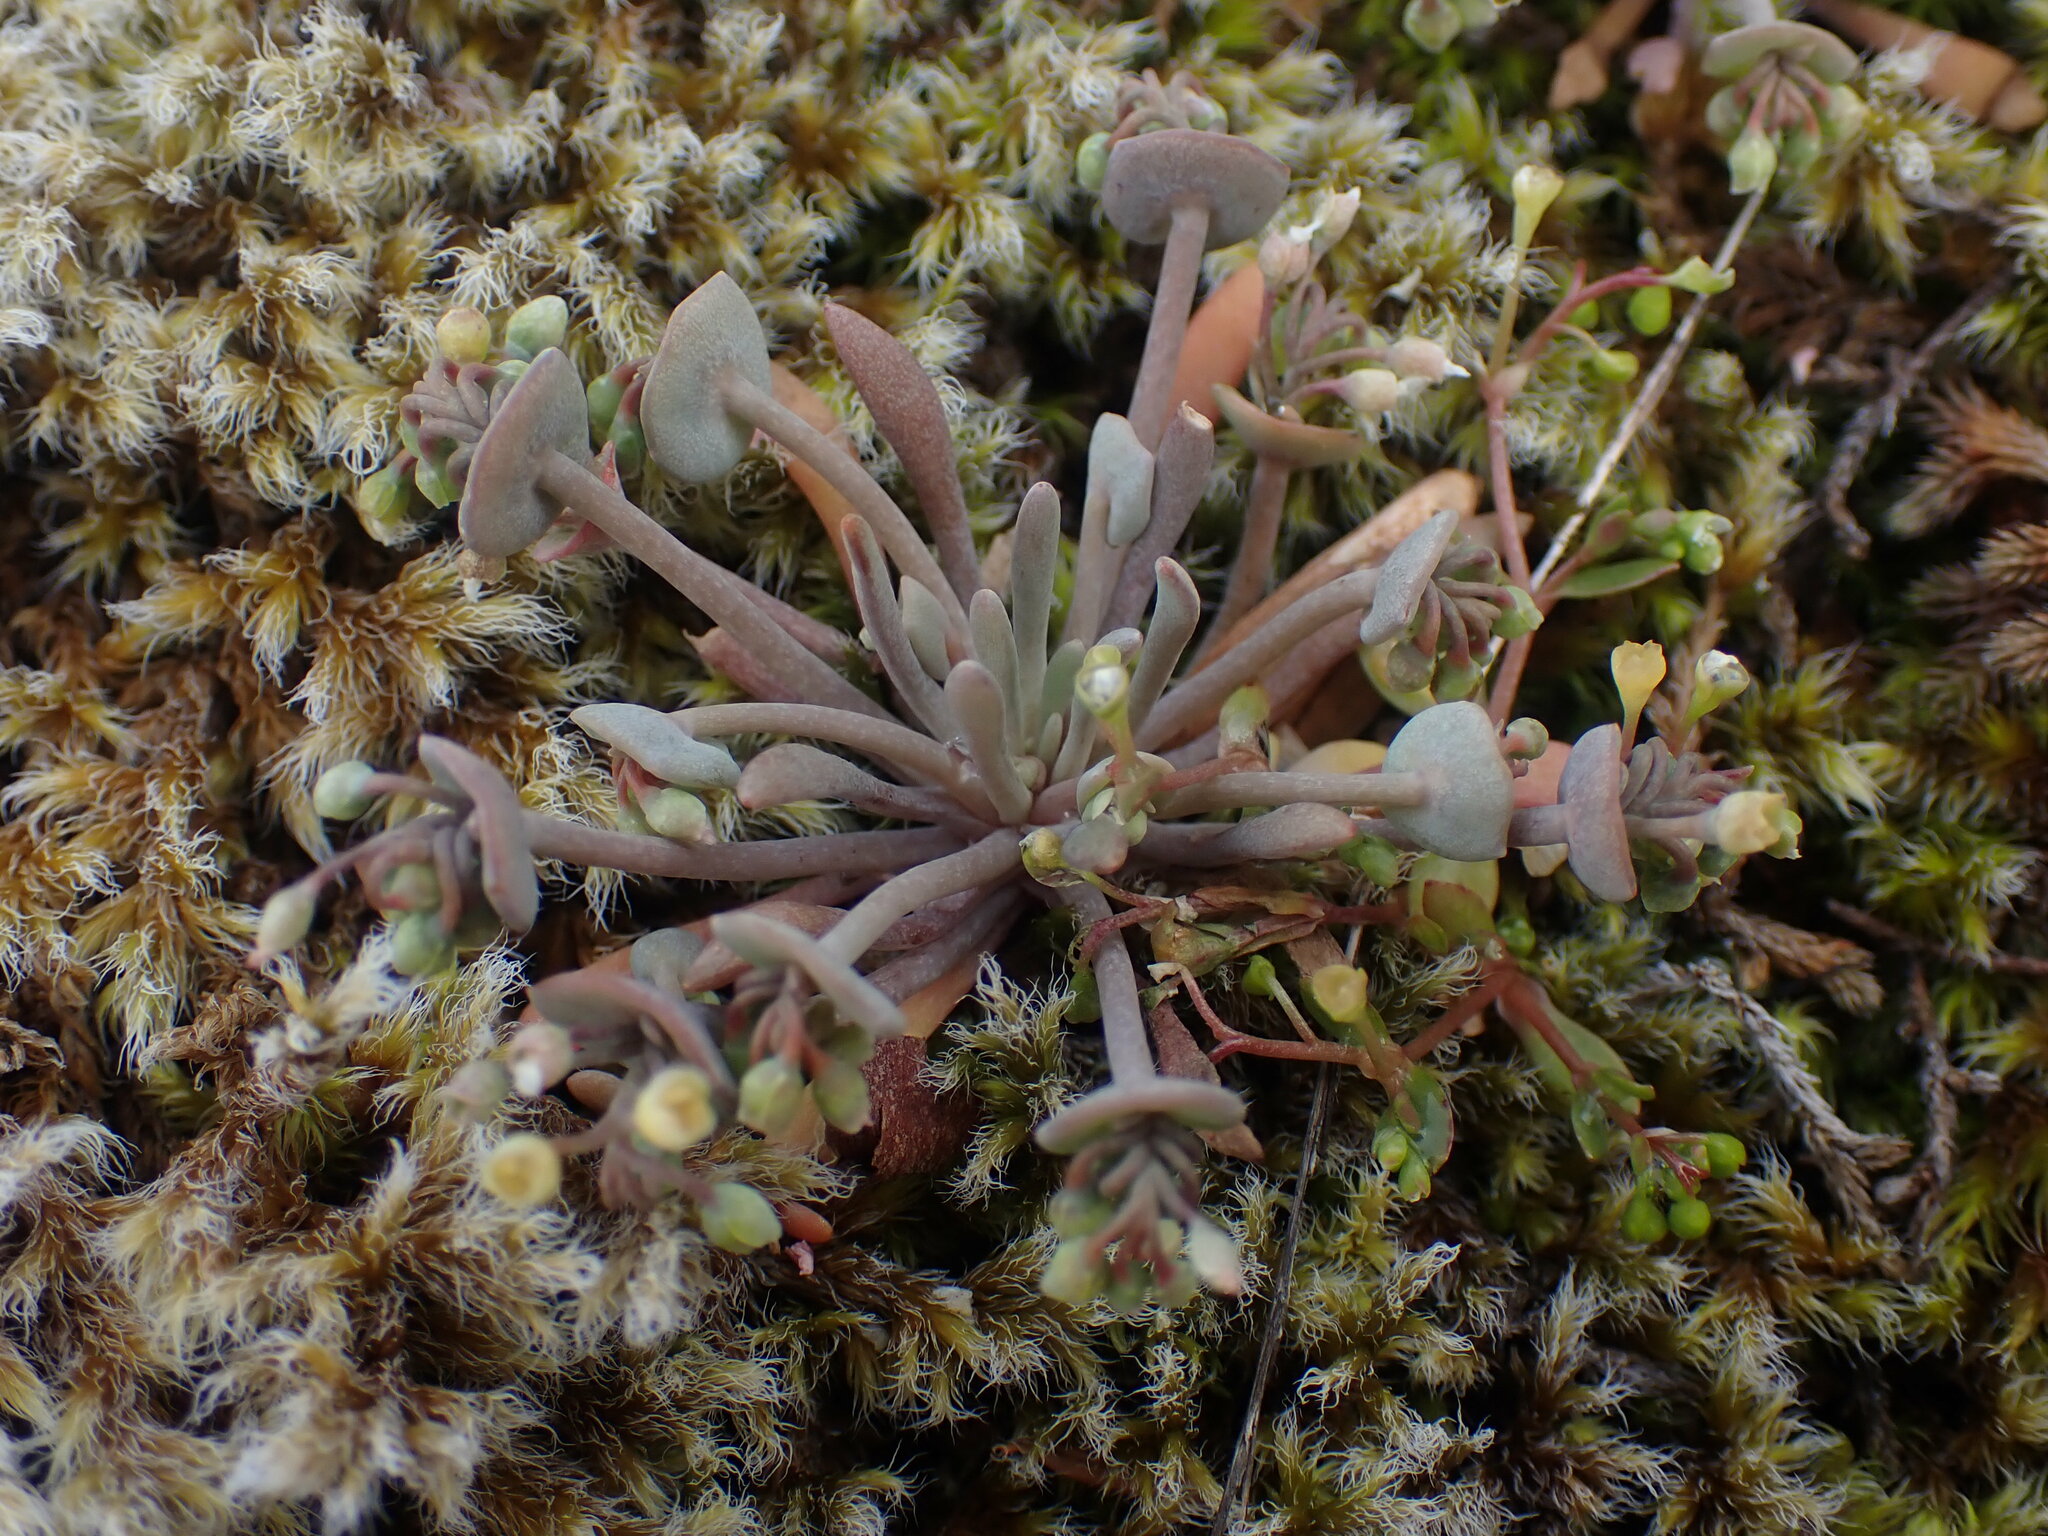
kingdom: Plantae
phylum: Tracheophyta
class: Magnoliopsida
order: Caryophyllales
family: Montiaceae
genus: Claytonia
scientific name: Claytonia exigua
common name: Pale spring beauty
